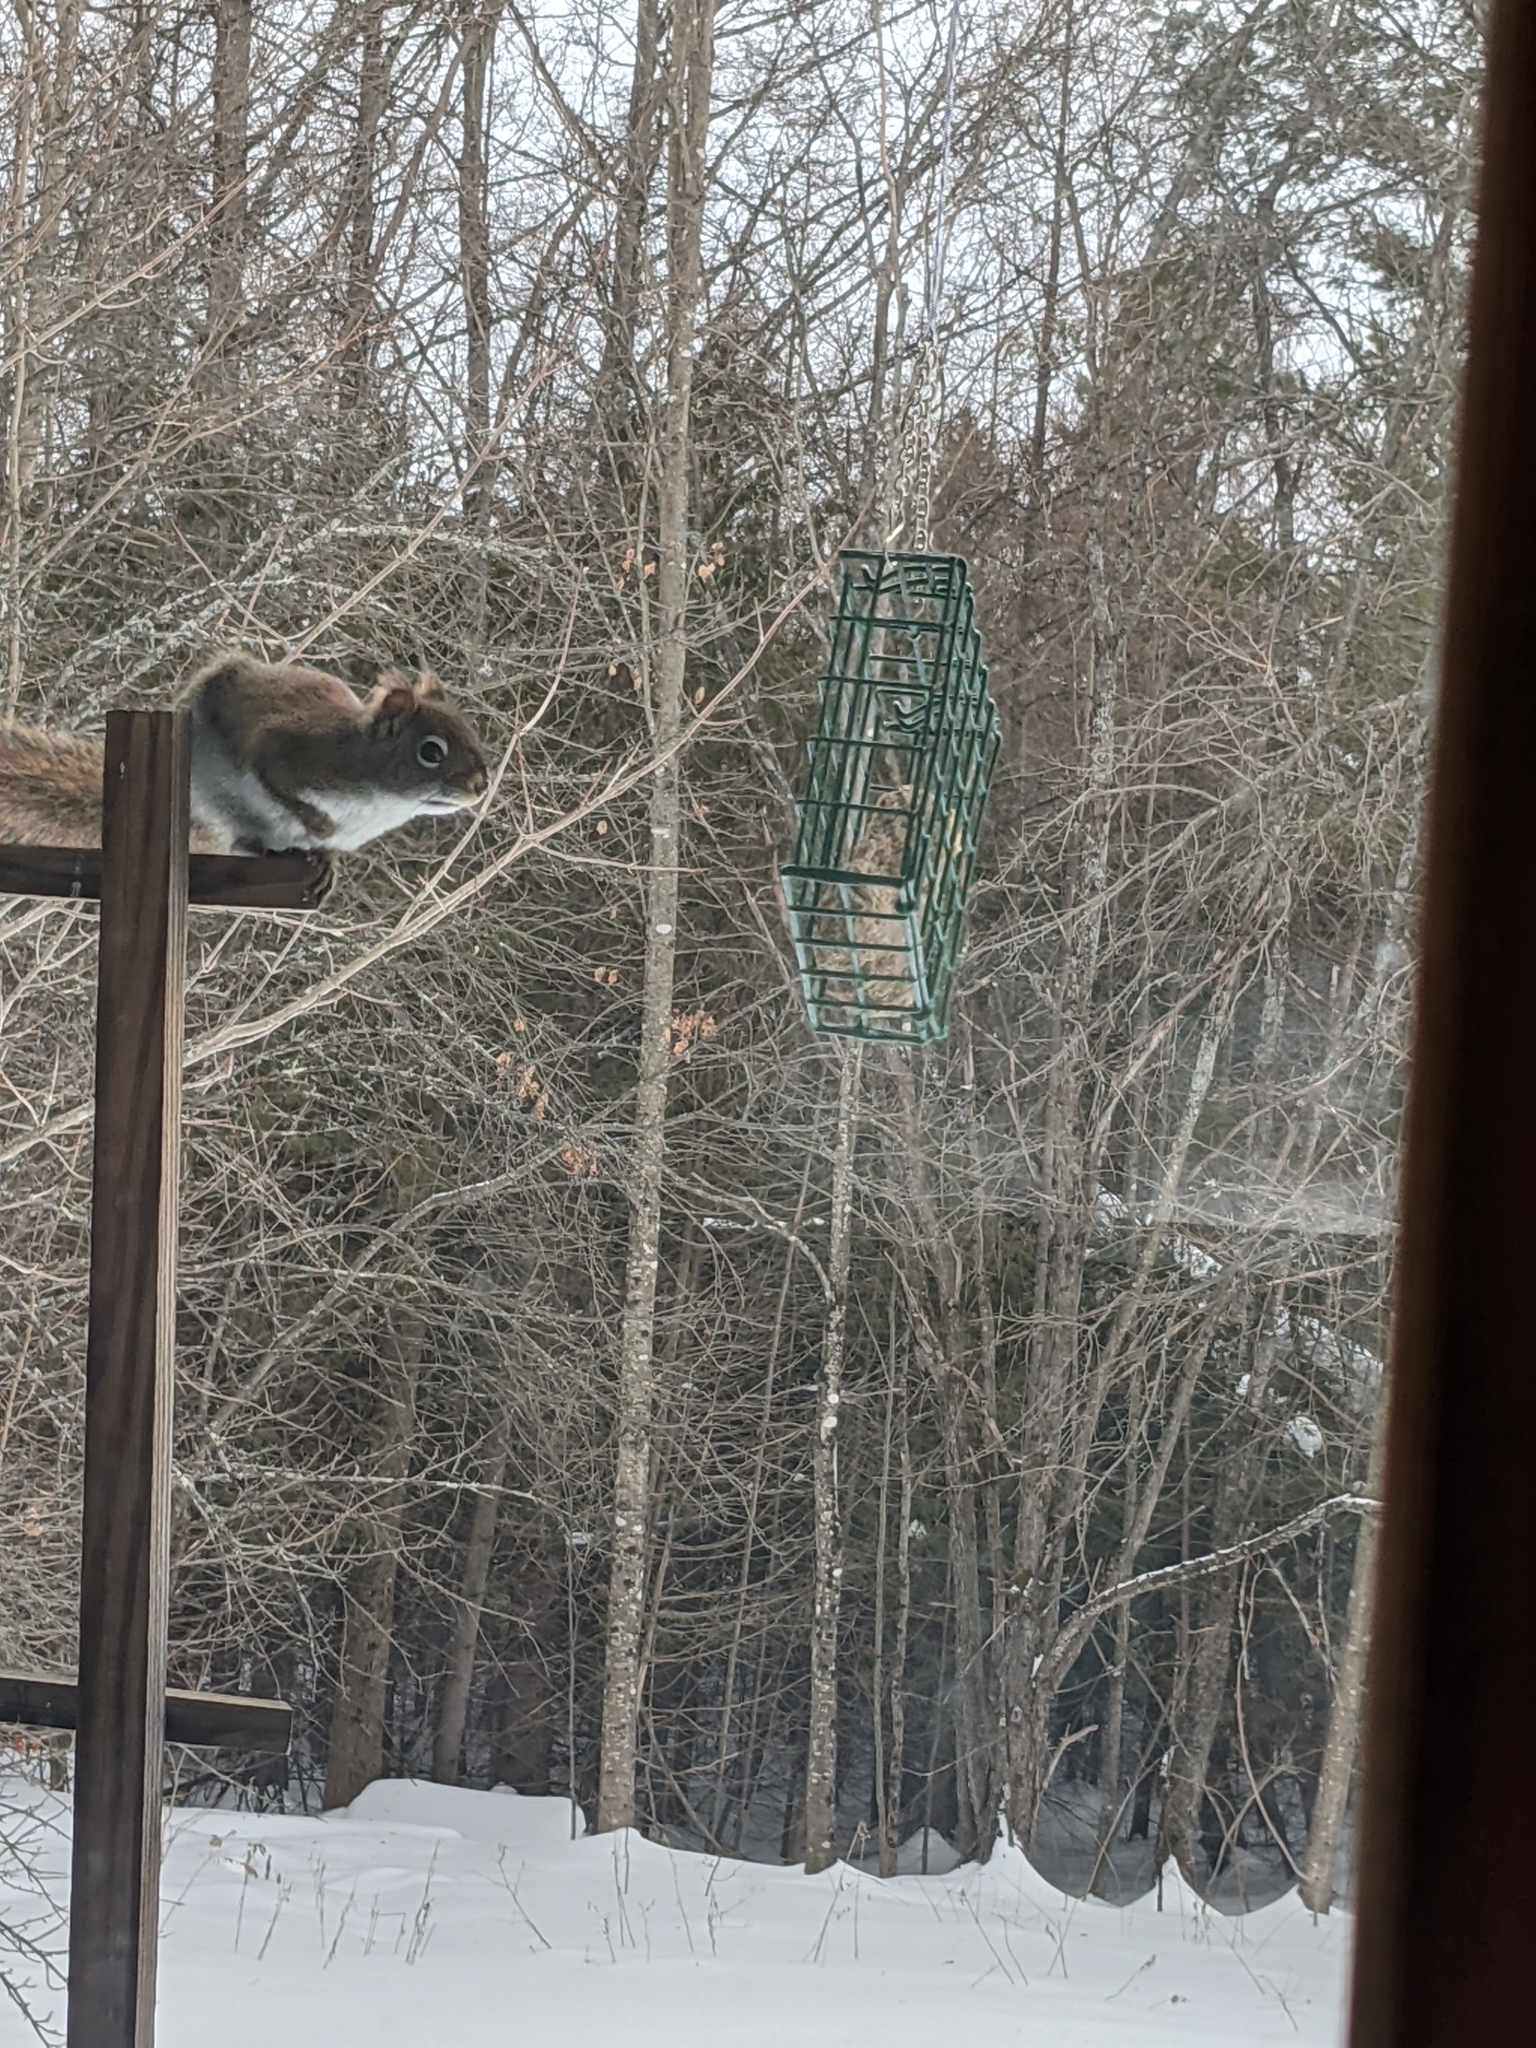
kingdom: Animalia
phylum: Chordata
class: Mammalia
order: Rodentia
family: Sciuridae
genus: Tamiasciurus
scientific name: Tamiasciurus hudsonicus
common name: Red squirrel
